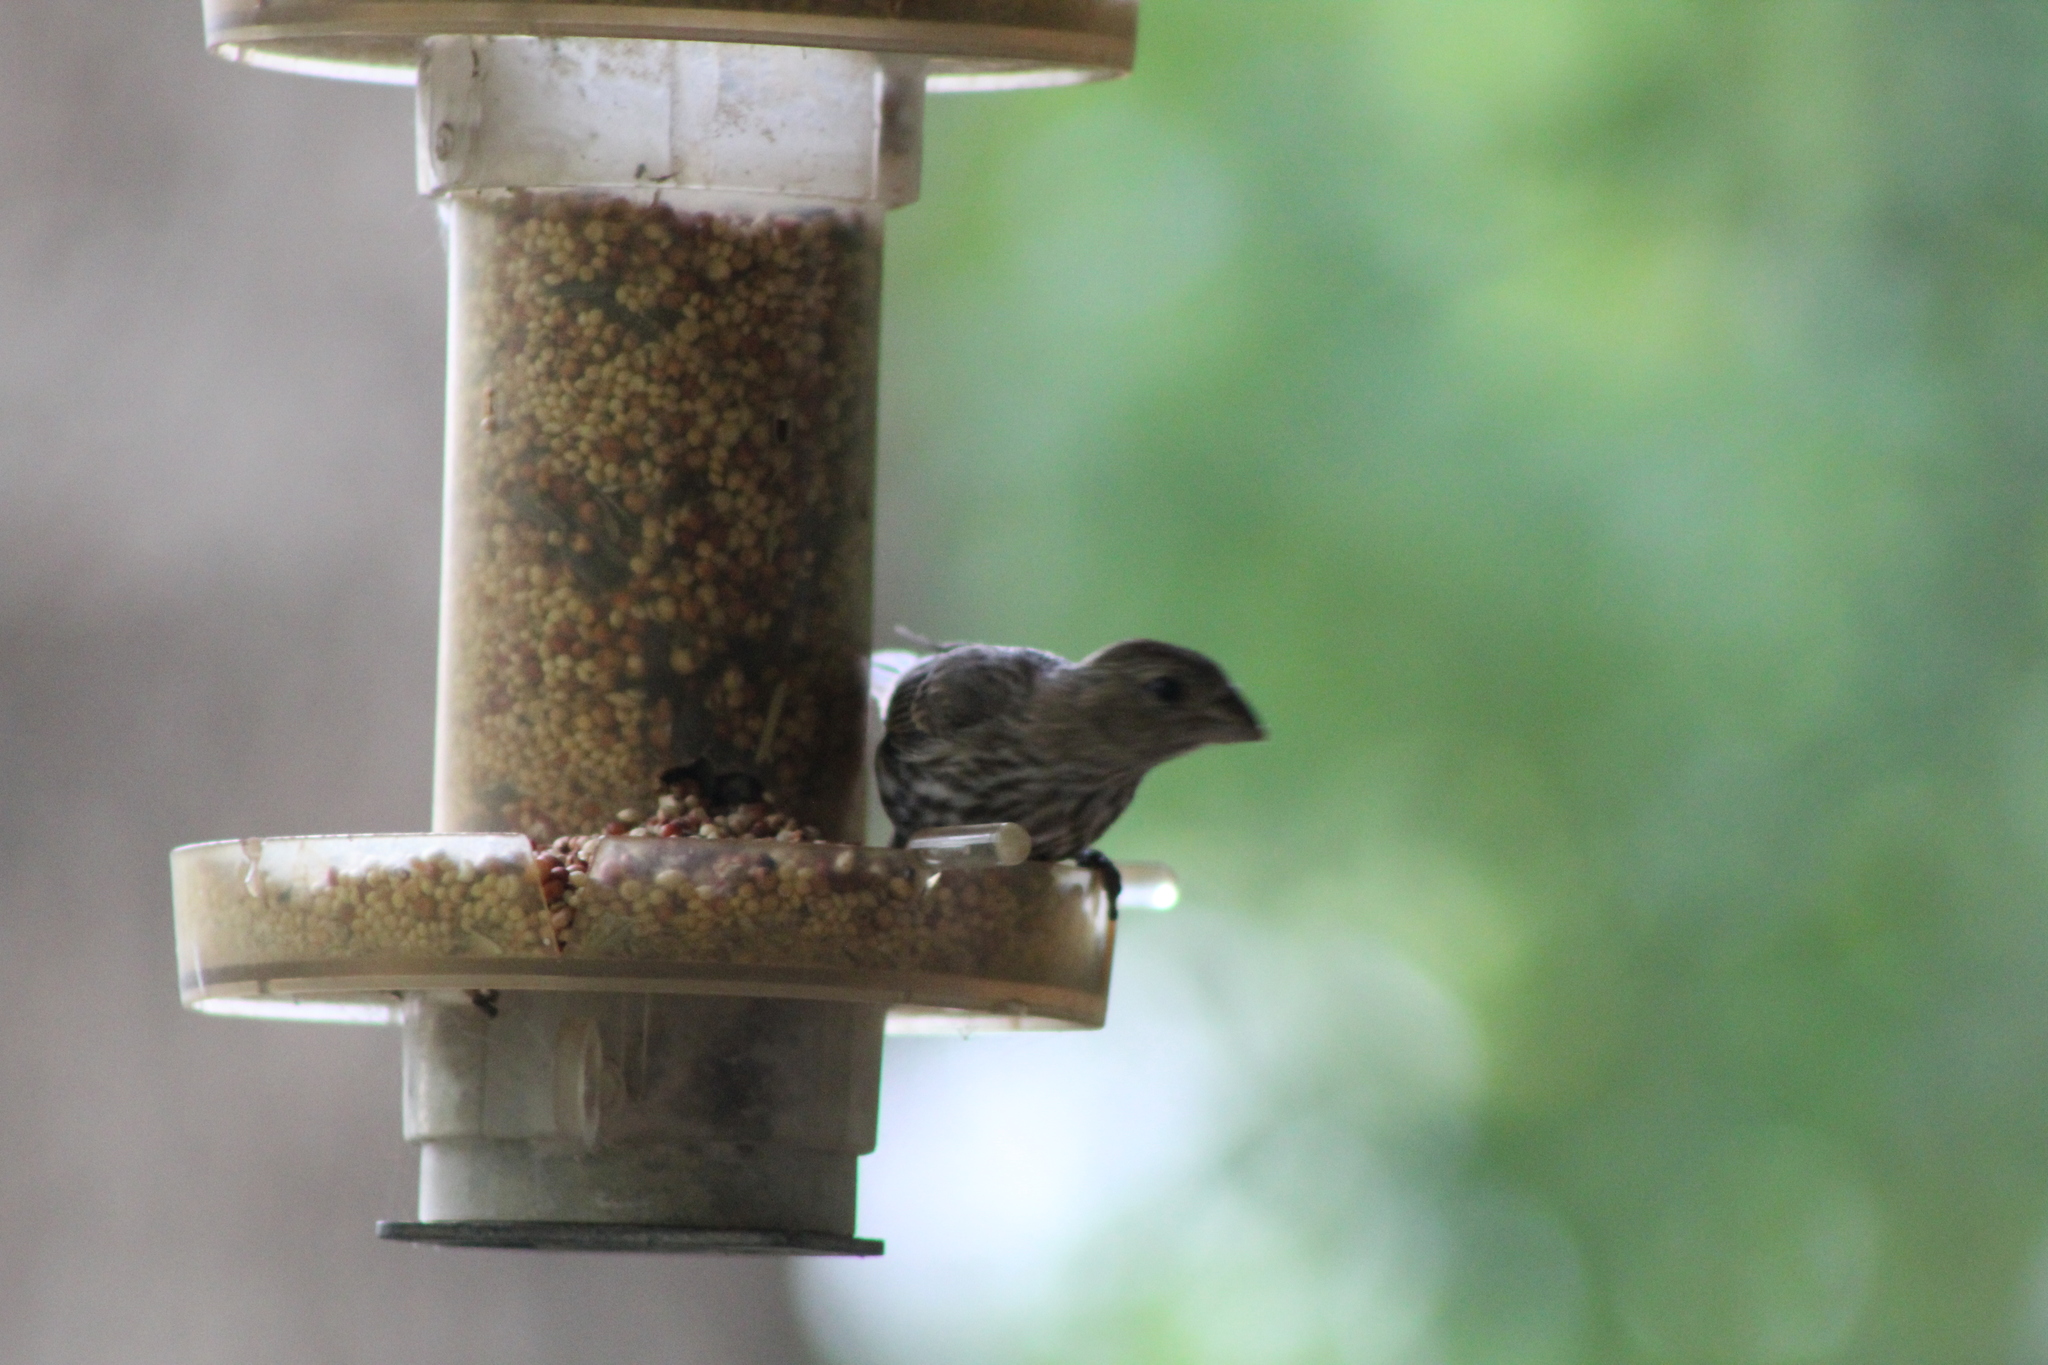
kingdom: Animalia
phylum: Chordata
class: Aves
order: Passeriformes
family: Fringillidae
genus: Haemorhous
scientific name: Haemorhous mexicanus
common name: House finch
